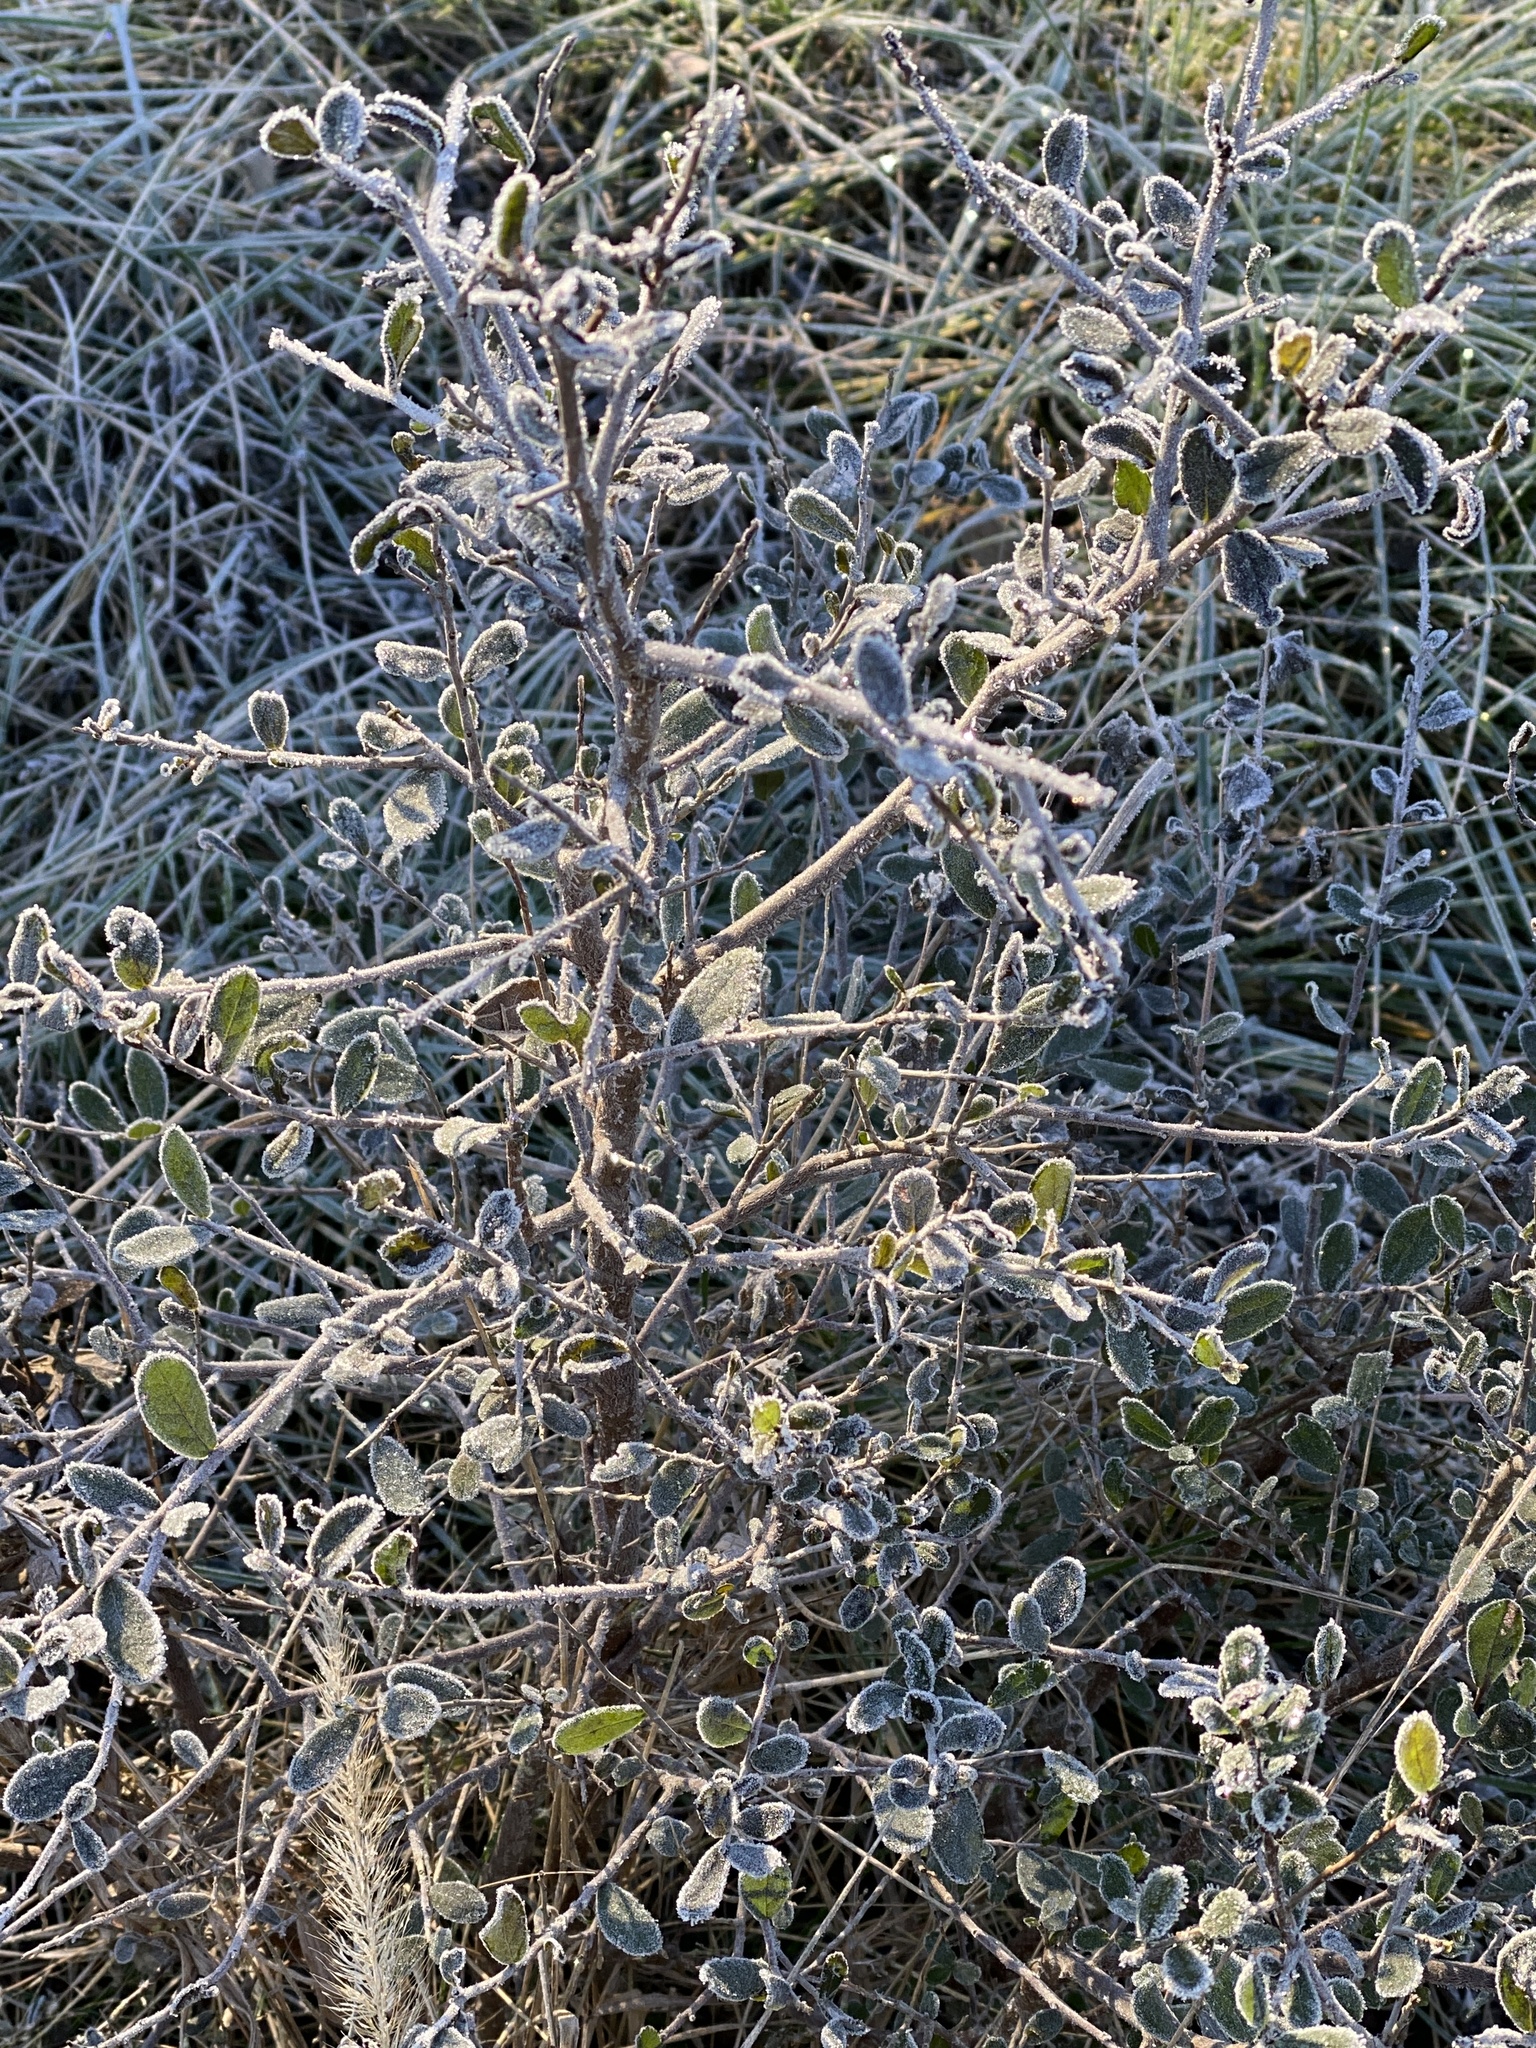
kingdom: Plantae
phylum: Tracheophyta
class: Magnoliopsida
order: Ericales
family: Ebenaceae
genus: Diospyros
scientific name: Diospyros texana
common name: Texas persimmon
